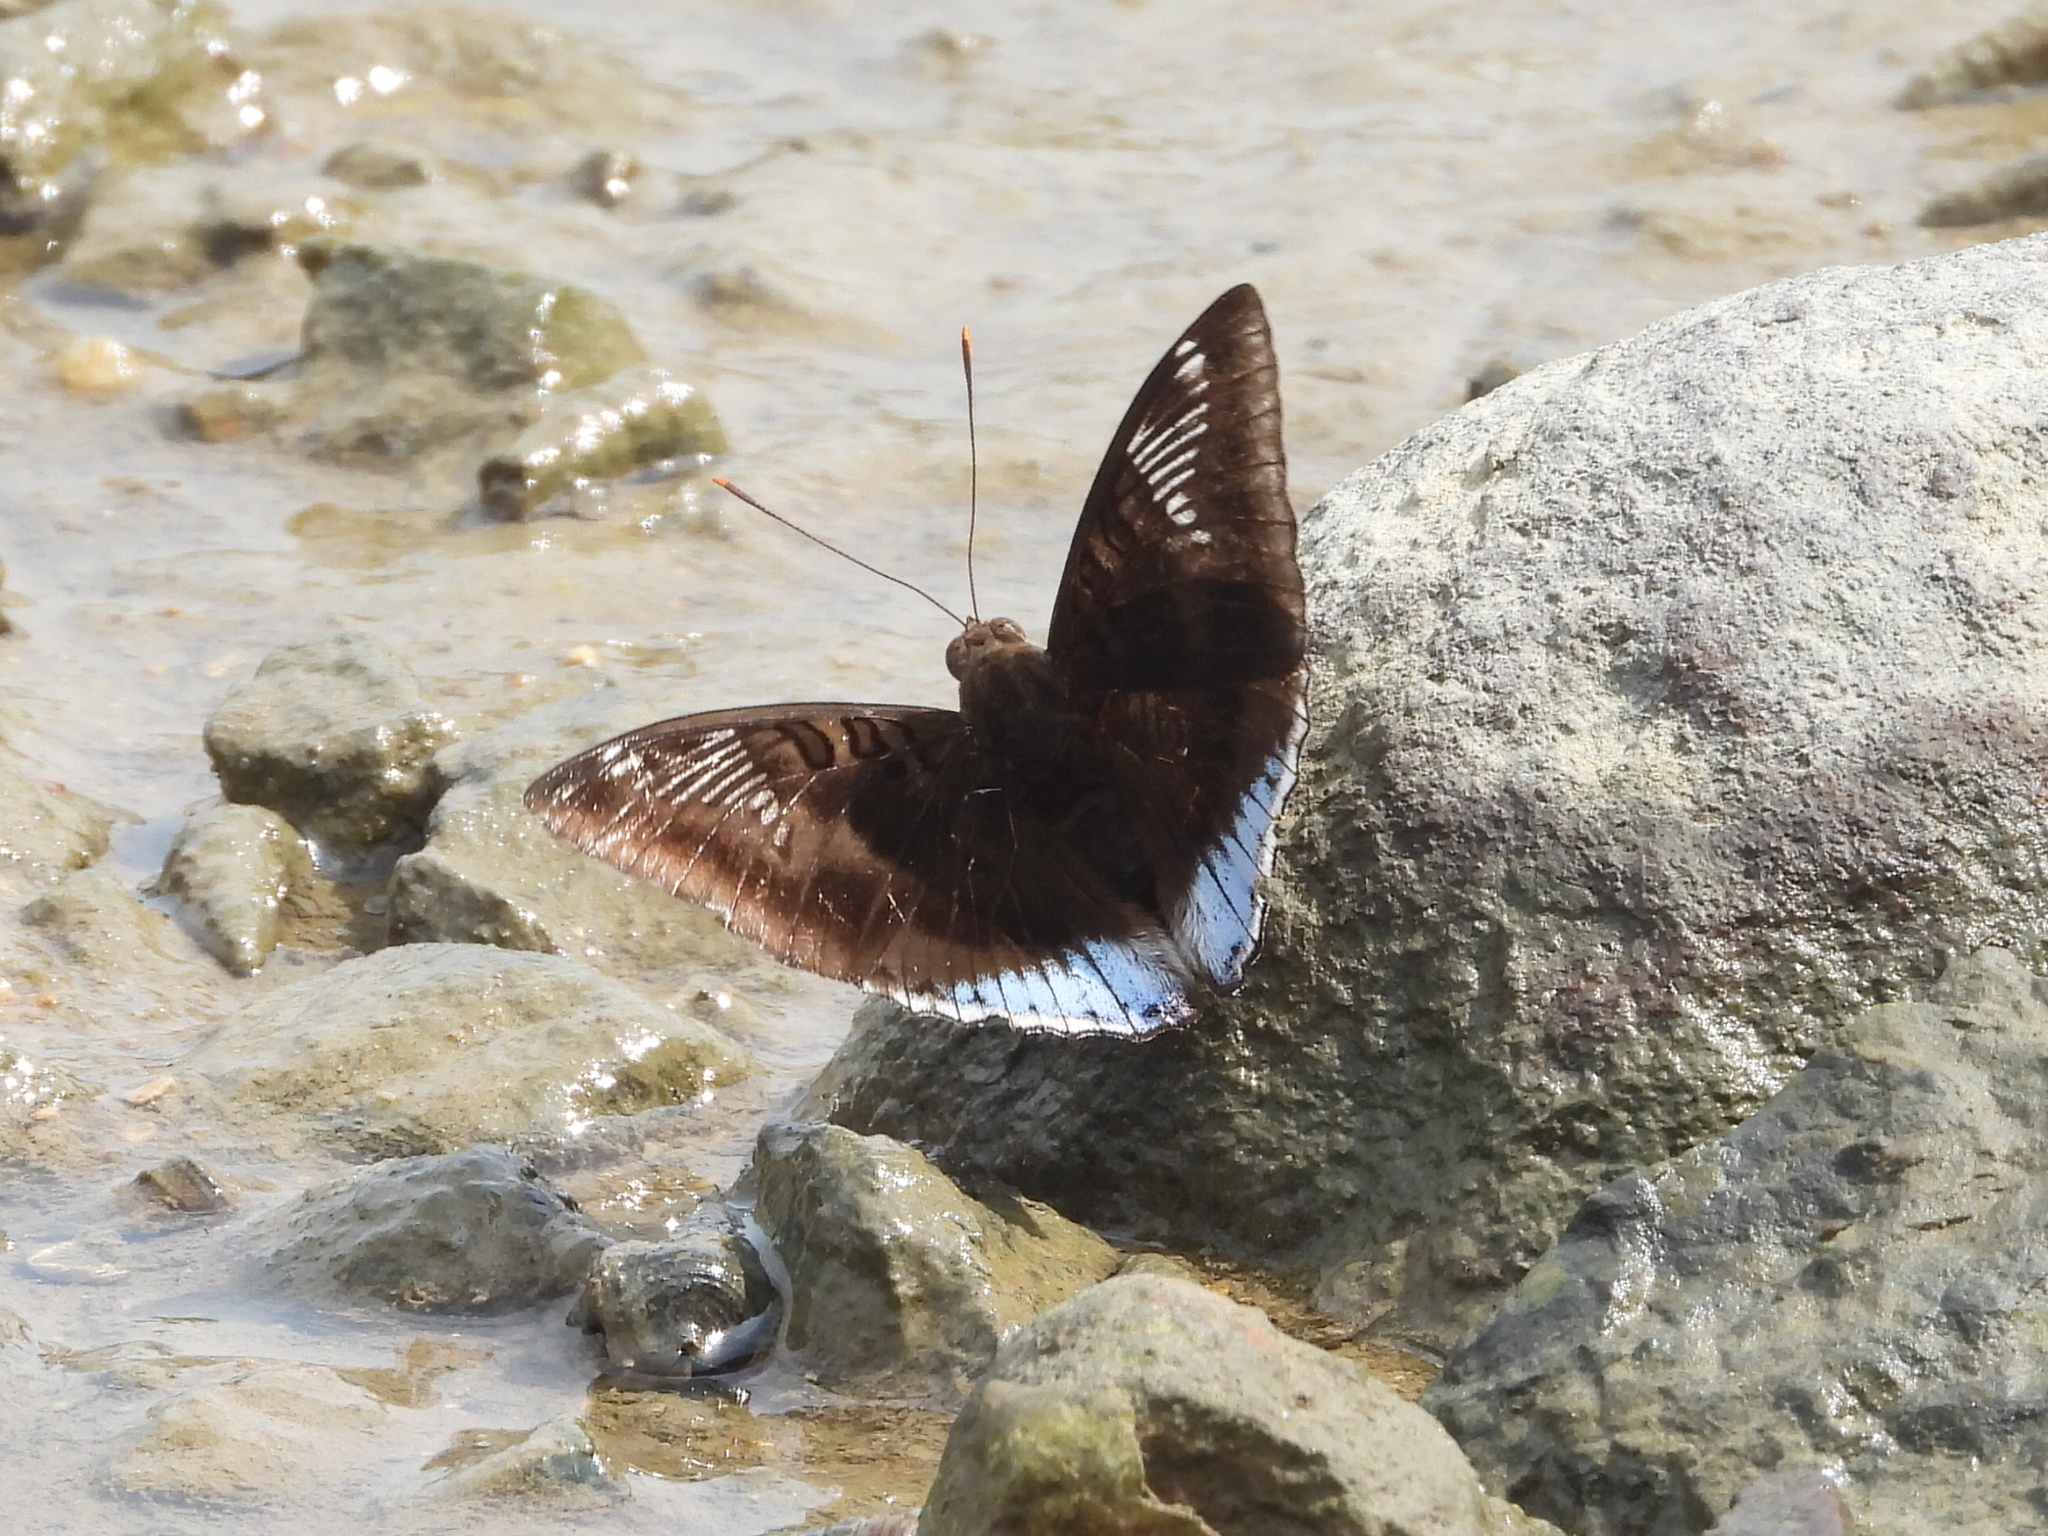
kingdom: Animalia
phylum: Arthropoda
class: Insecta
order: Lepidoptera
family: Nymphalidae
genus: Euthalia
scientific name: Euthalia phemius
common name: White-edged blue baron
